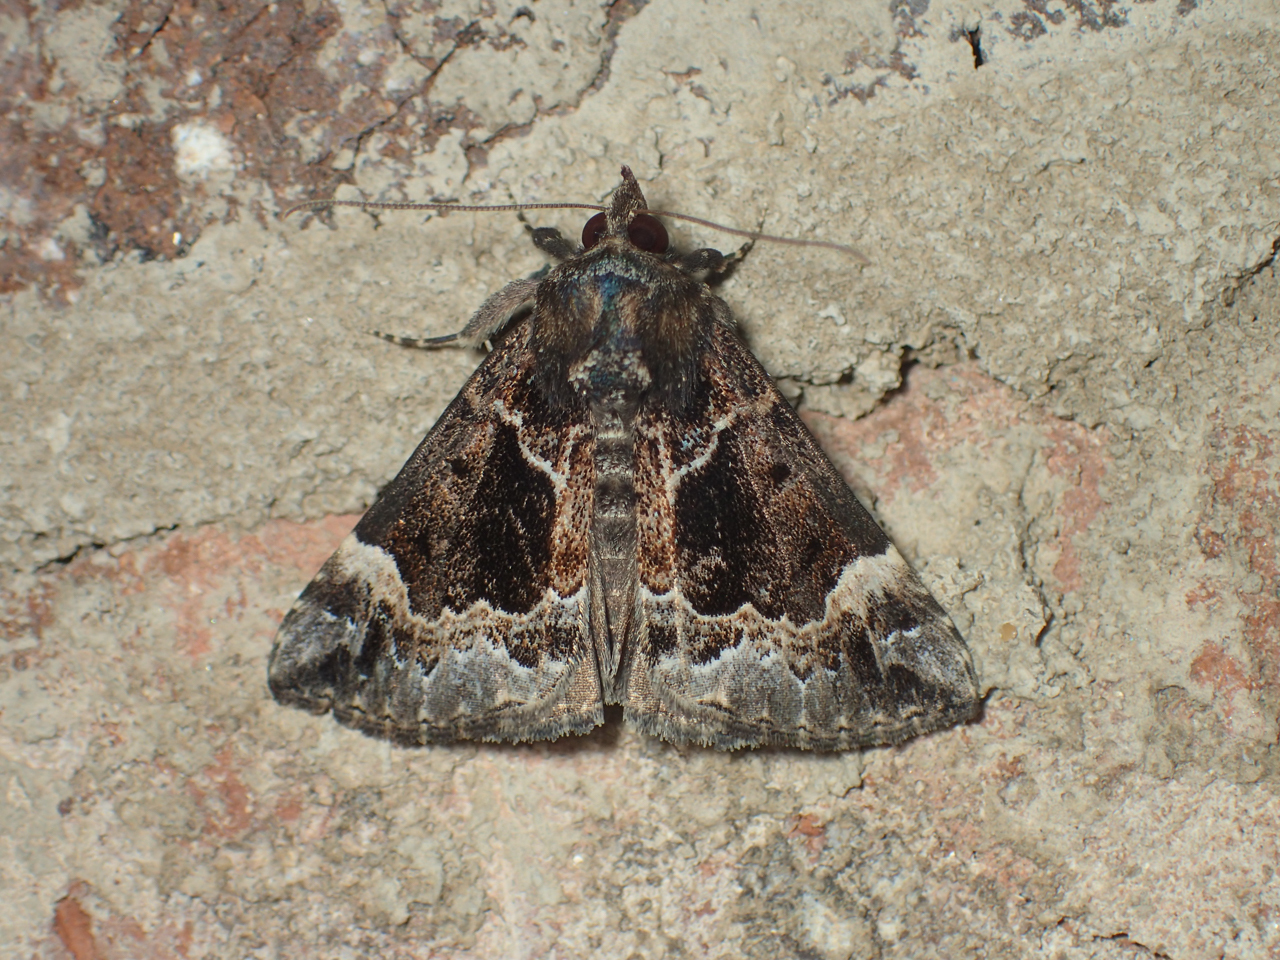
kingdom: Animalia
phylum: Arthropoda
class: Insecta
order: Lepidoptera
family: Erebidae
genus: Hypena
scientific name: Hypena palparia
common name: Mottled bomolocha moth
